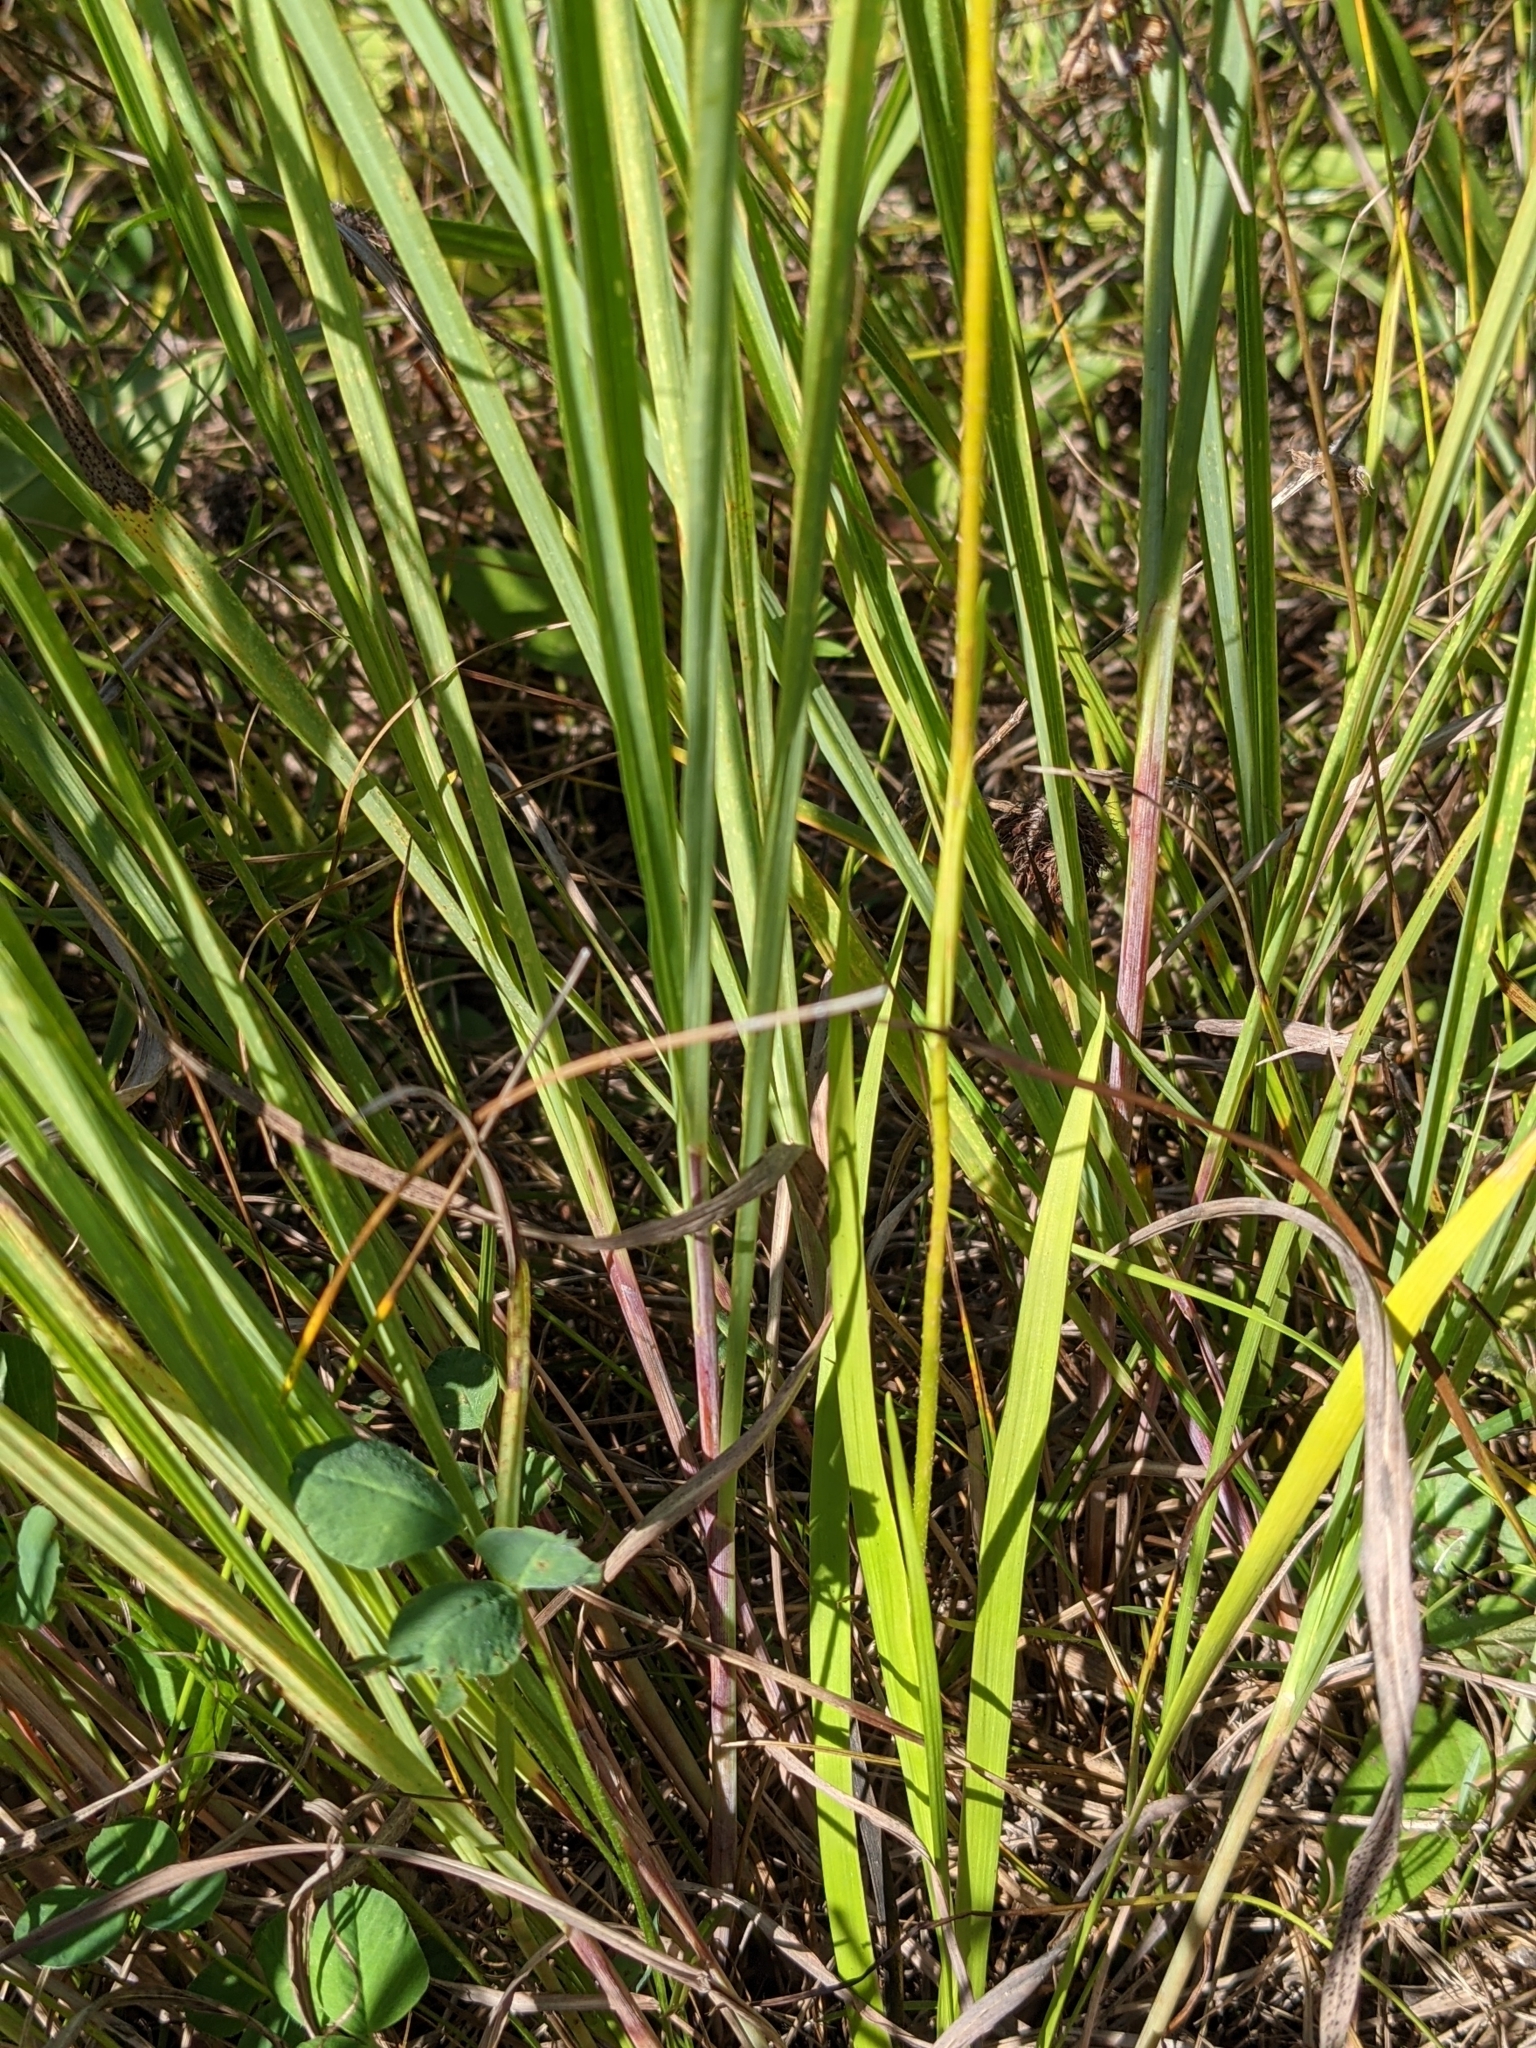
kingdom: Plantae
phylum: Tracheophyta
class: Liliopsida
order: Alismatales
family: Tofieldiaceae
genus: Triantha
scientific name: Triantha glutinosa
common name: Glutinous tofieldia
